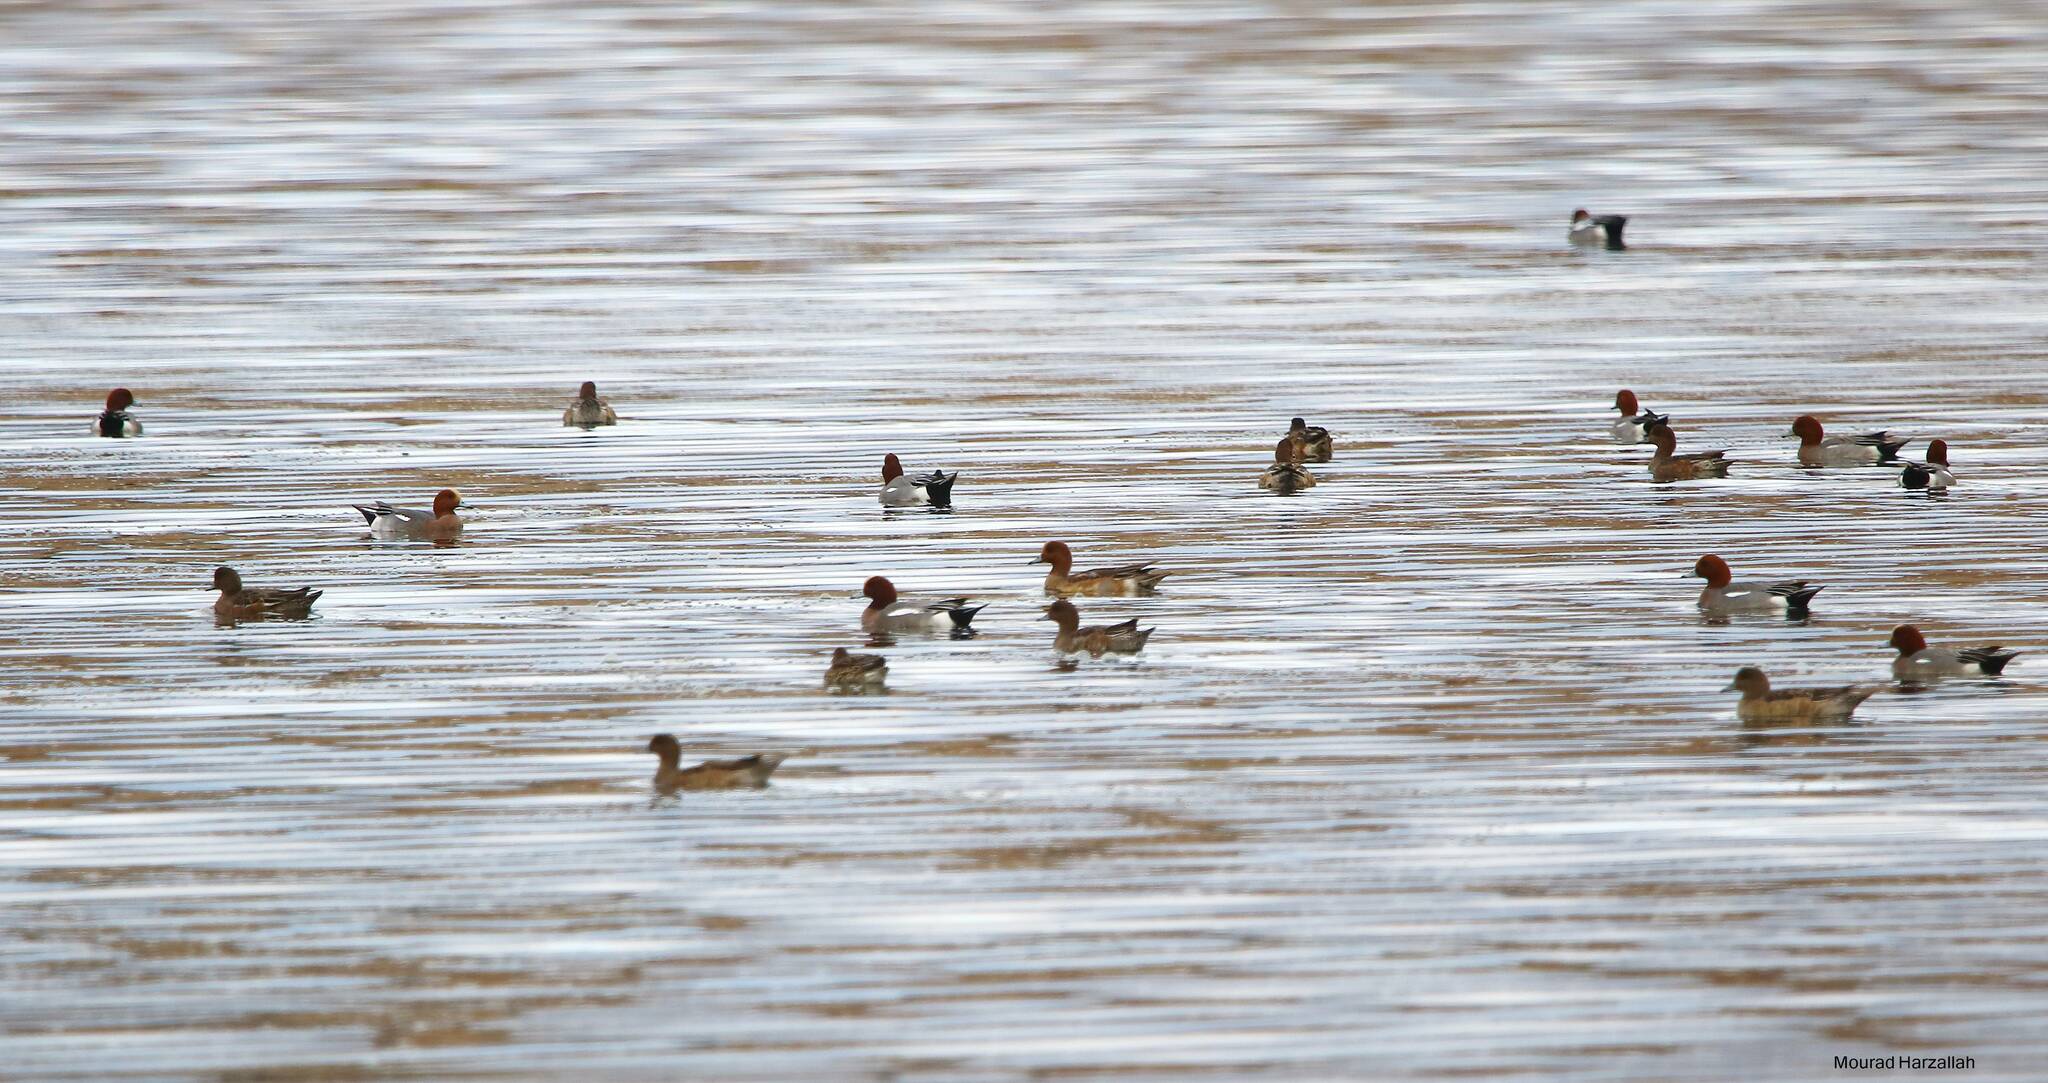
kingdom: Animalia
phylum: Chordata
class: Aves
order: Anseriformes
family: Anatidae
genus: Mareca
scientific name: Mareca penelope
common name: Eurasian wigeon
